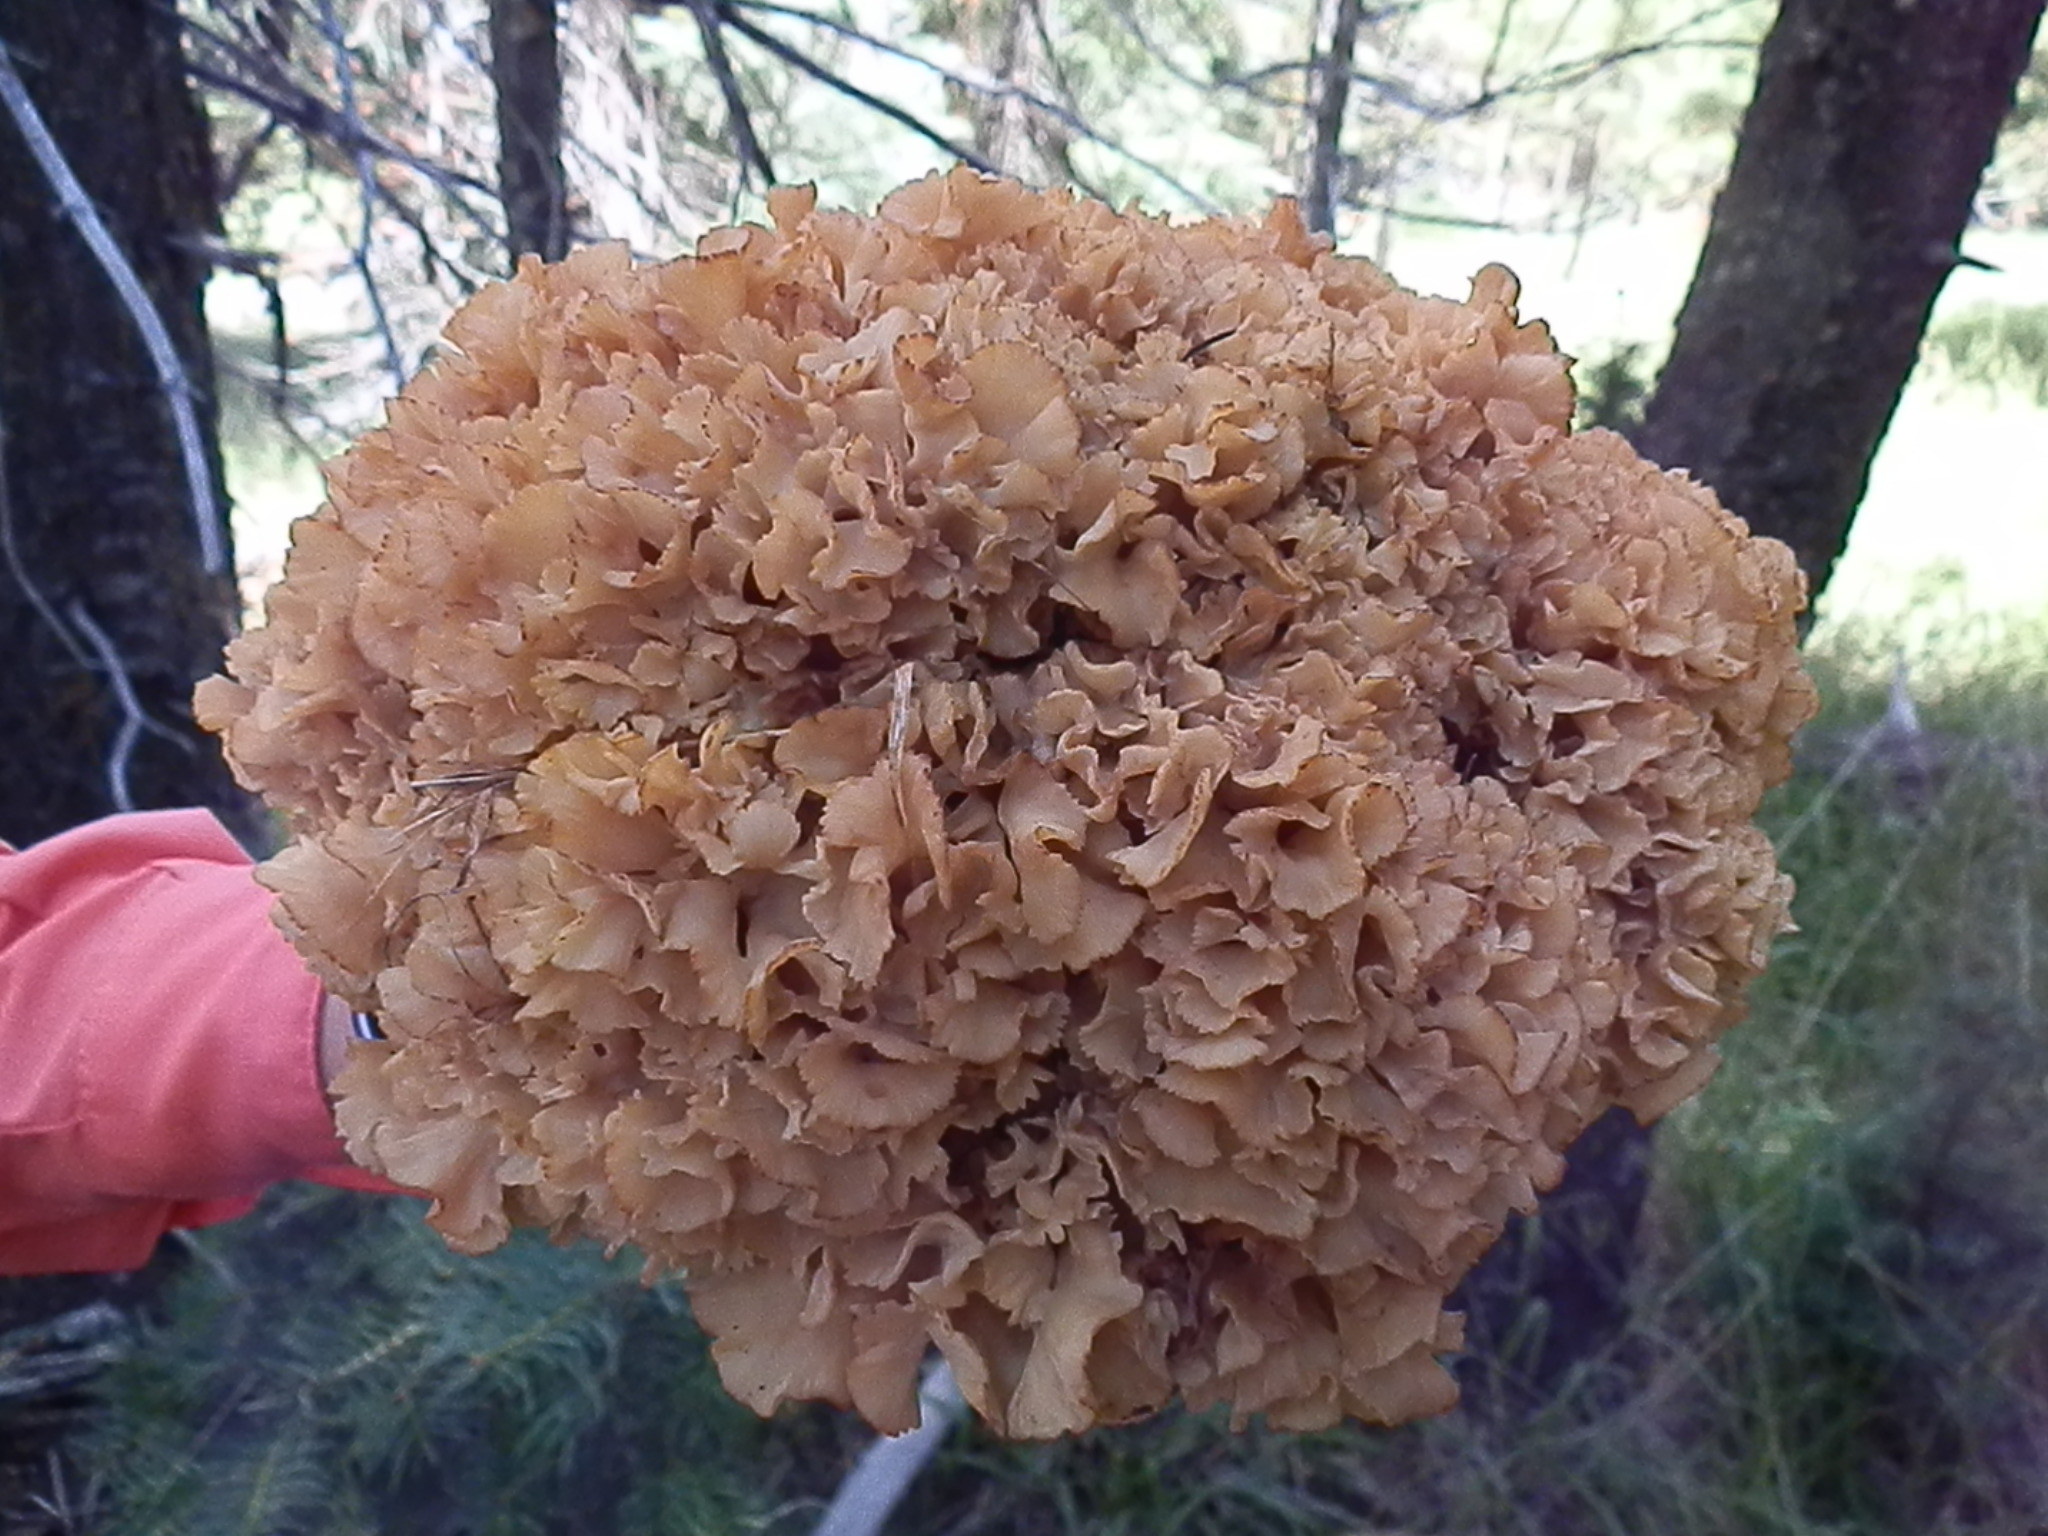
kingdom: Fungi
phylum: Basidiomycota
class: Agaricomycetes
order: Polyporales
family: Sparassidaceae
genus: Sparassis
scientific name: Sparassis americana
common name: American cauliflower mushroom
